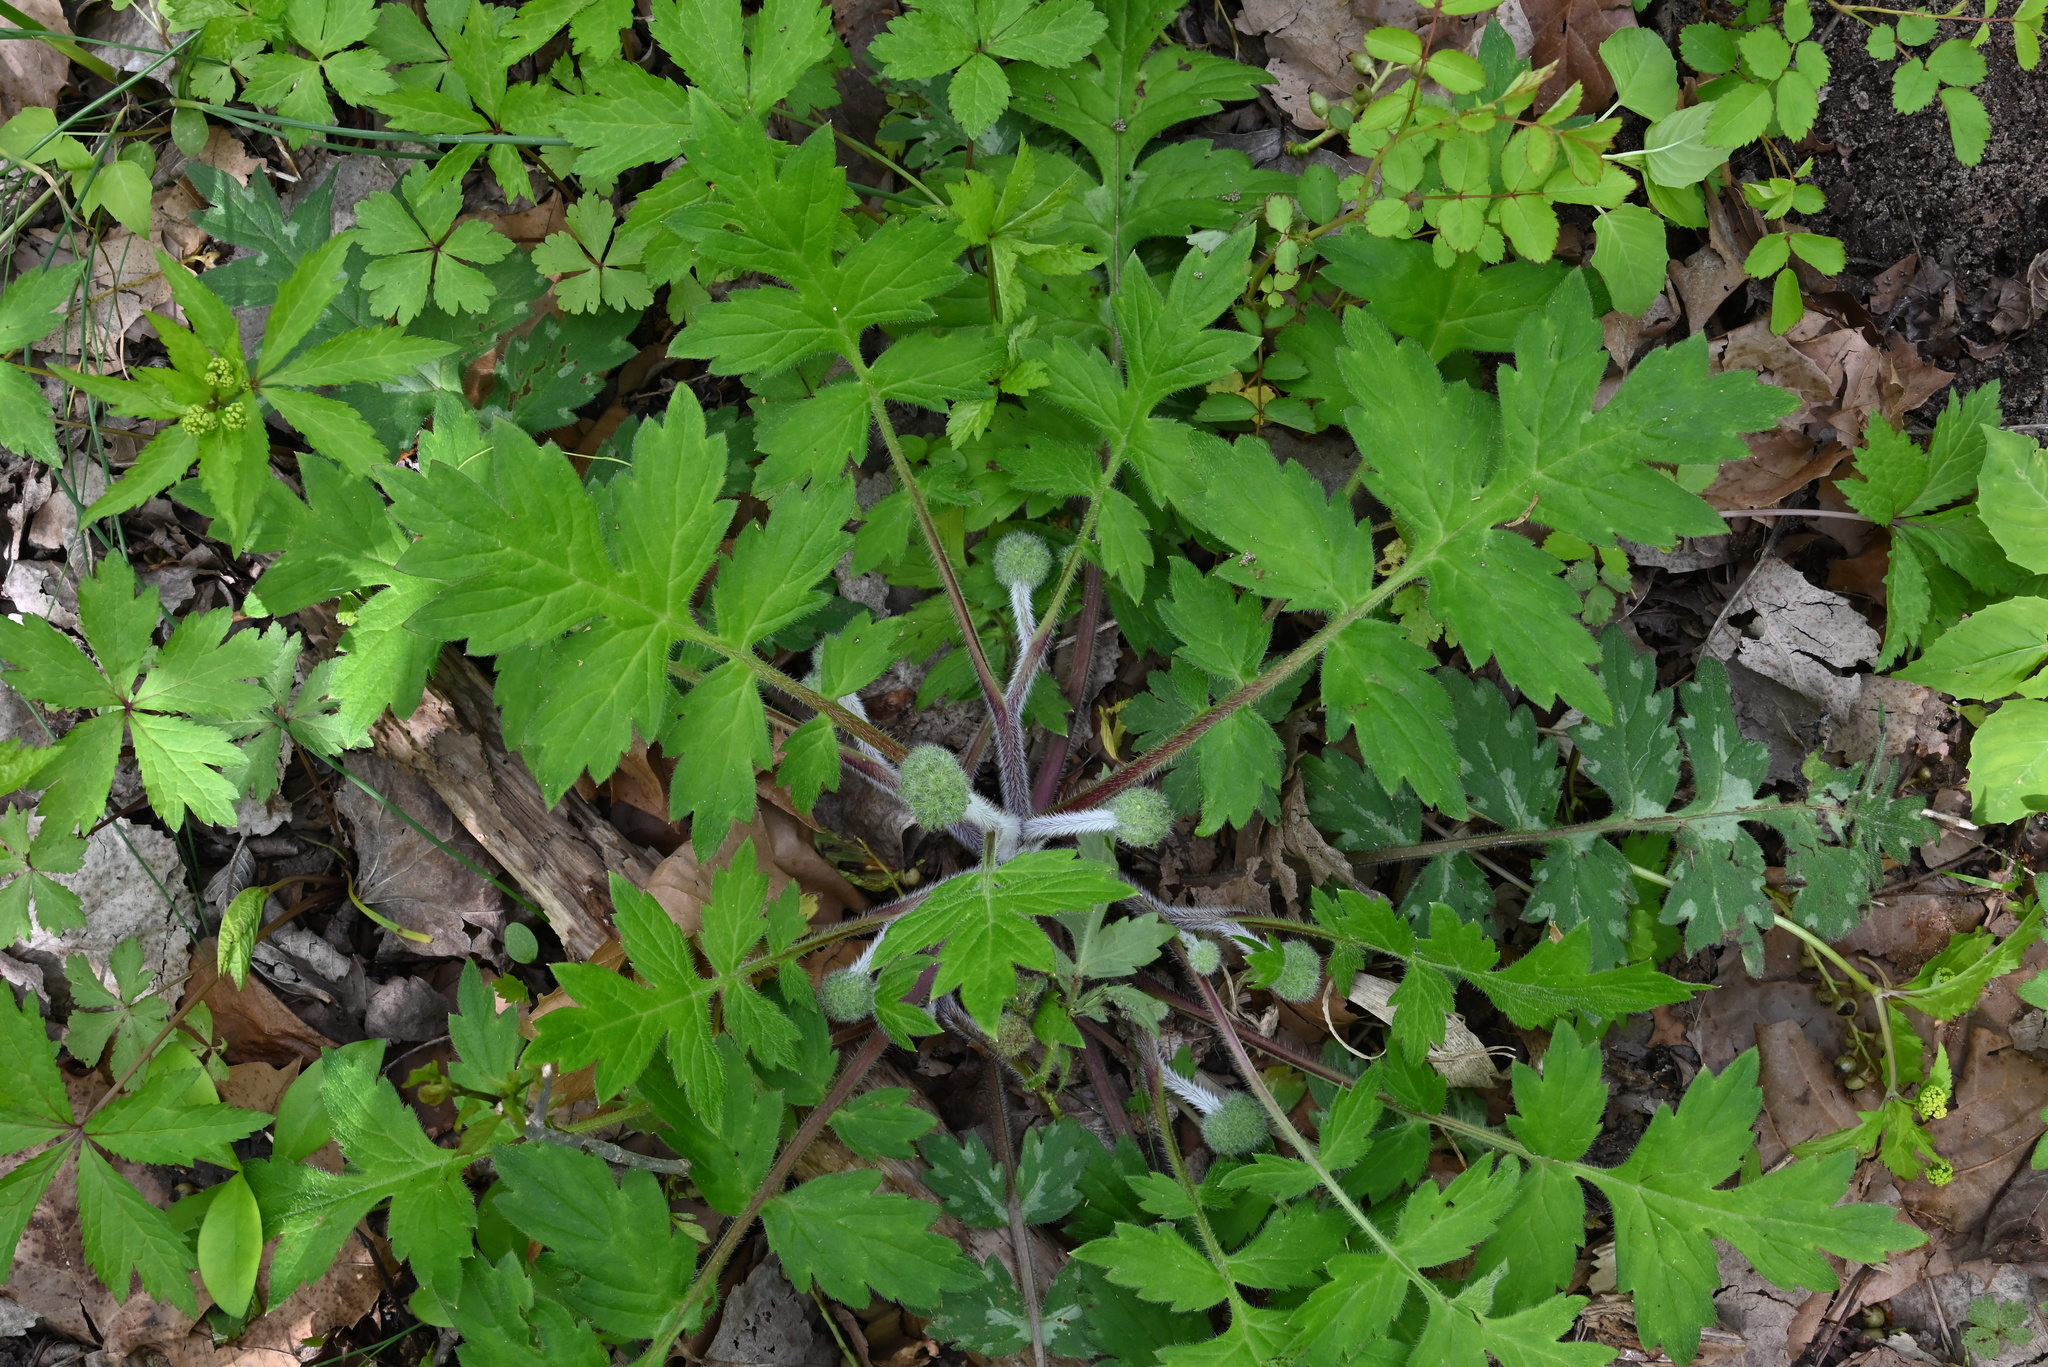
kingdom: Plantae
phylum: Tracheophyta
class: Magnoliopsida
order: Boraginales
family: Hydrophyllaceae
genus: Hydrophyllum
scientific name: Hydrophyllum macrophyllum
